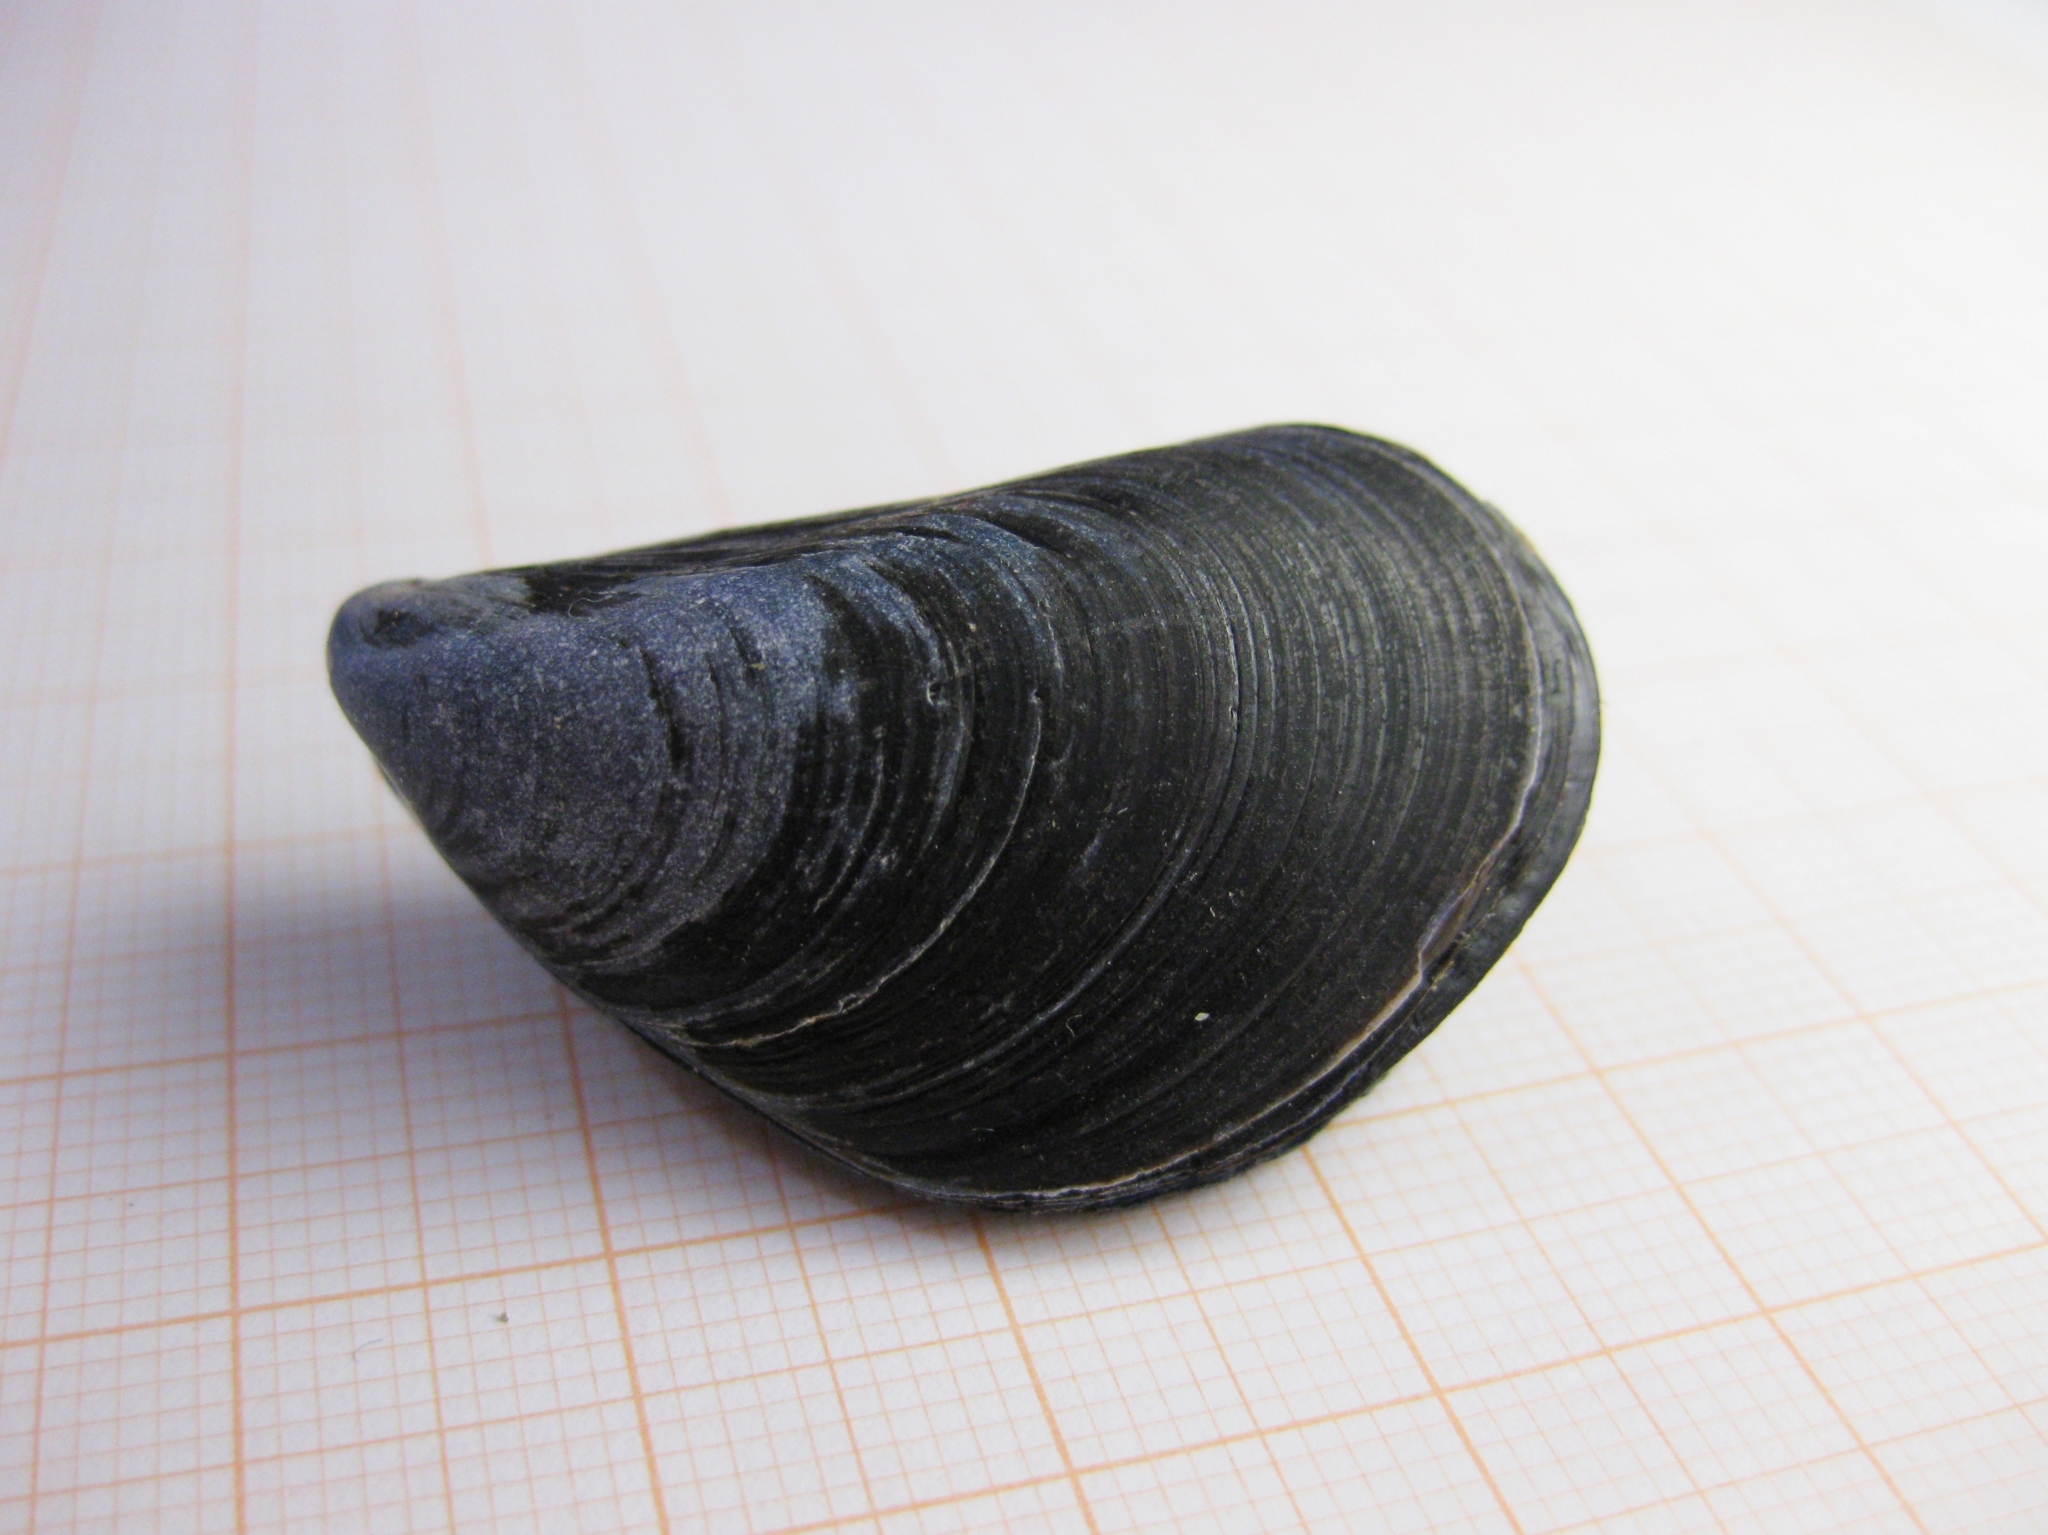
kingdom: Animalia
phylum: Mollusca
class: Bivalvia
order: Mytilida
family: Mytilidae
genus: Mytilus
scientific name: Mytilus galloprovincialis
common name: Mediterranean mussel
